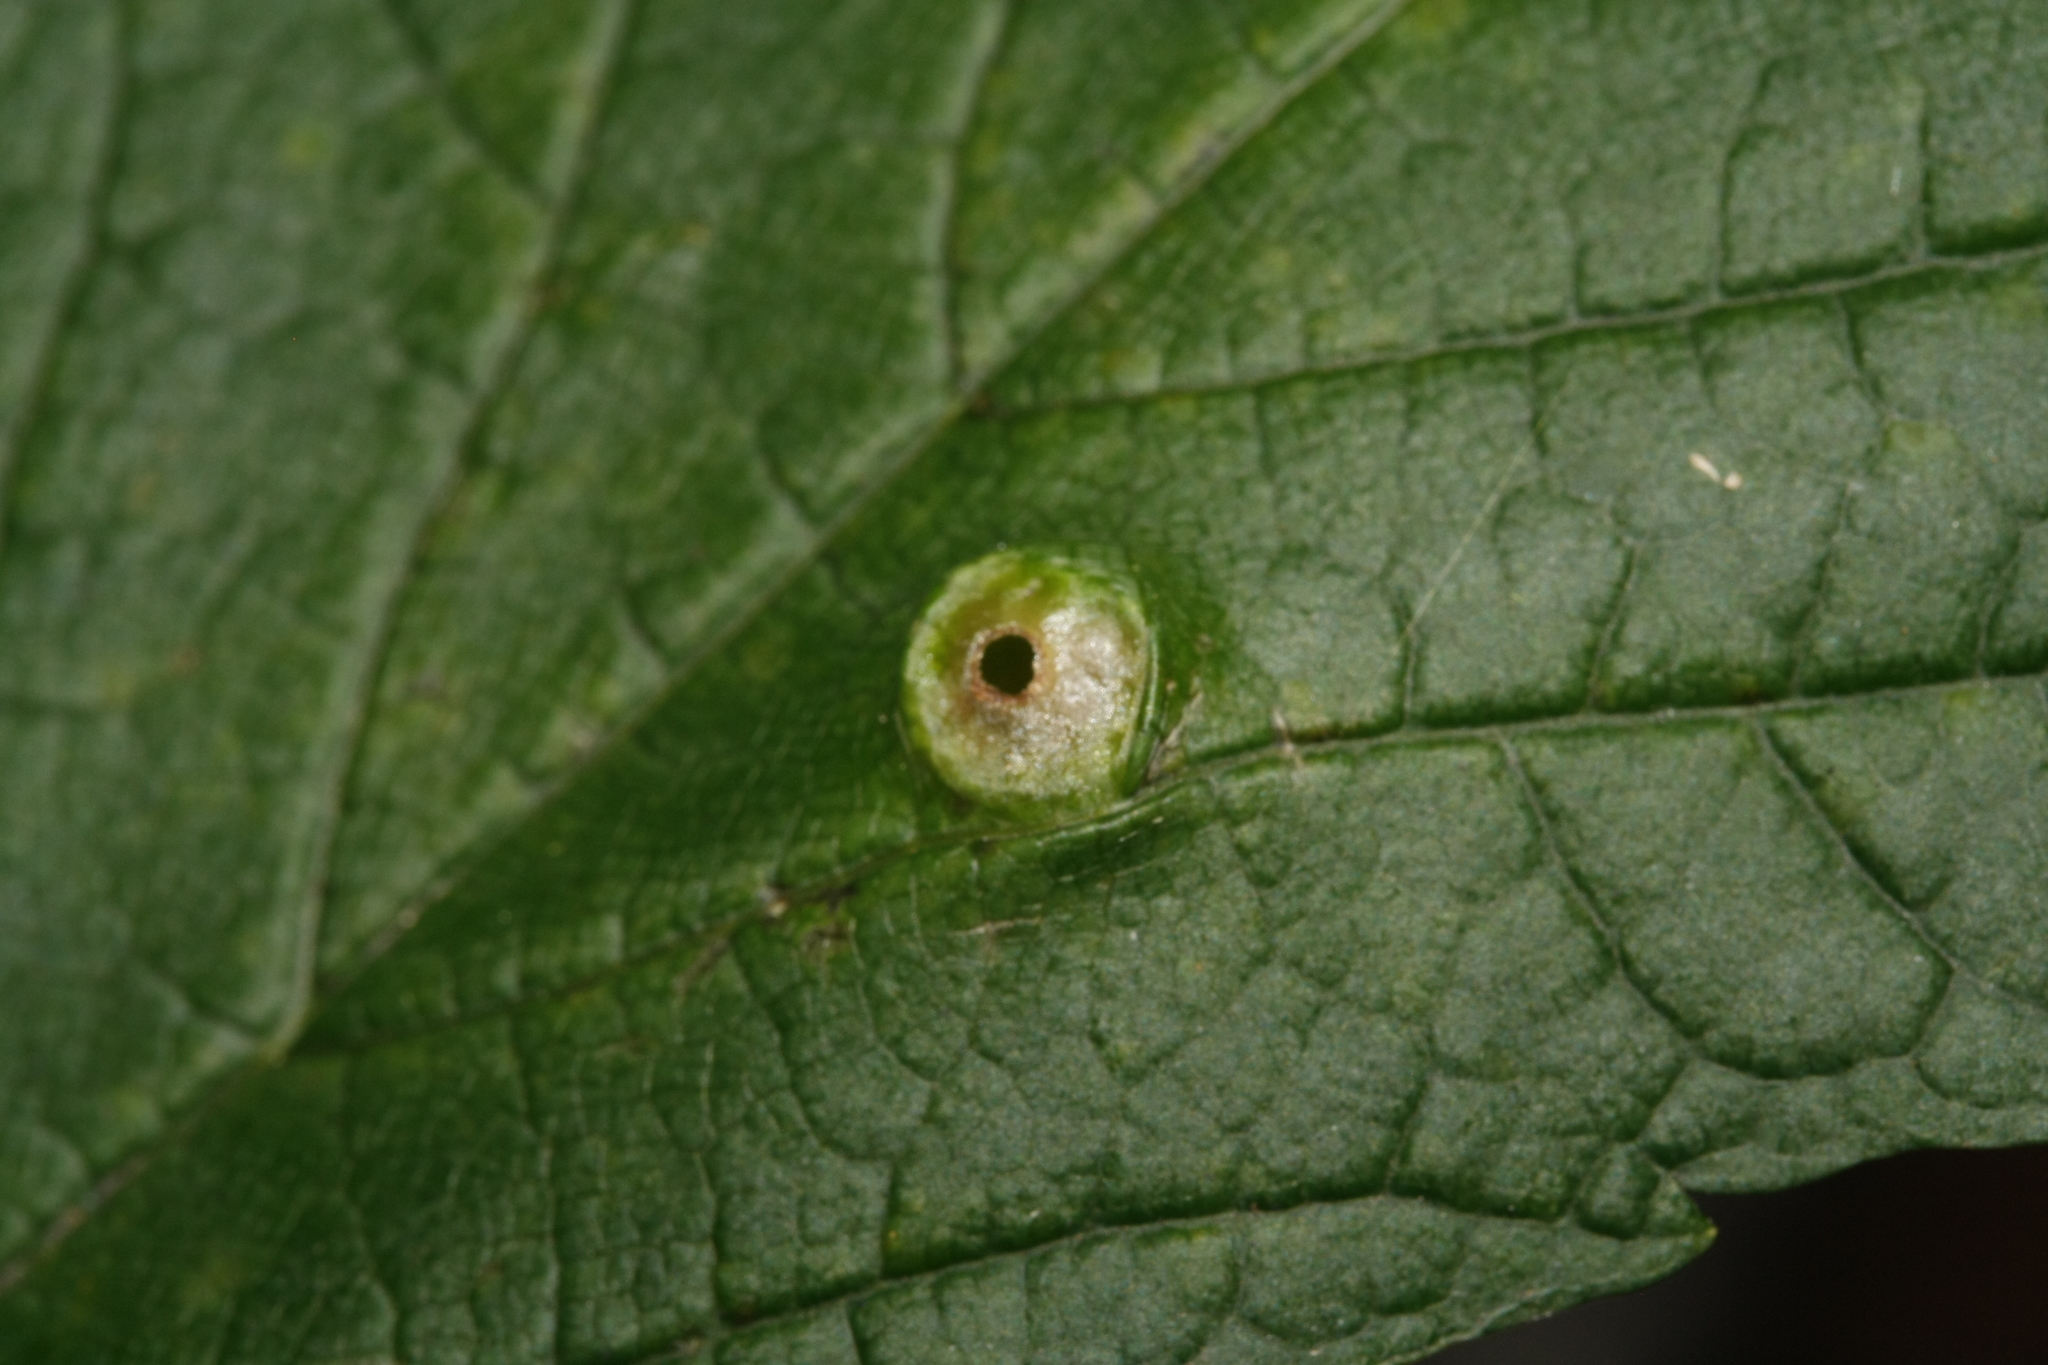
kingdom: Animalia
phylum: Arthropoda
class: Insecta
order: Hymenoptera
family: Cynipidae
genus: Pediaspis
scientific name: Pediaspis aceris
